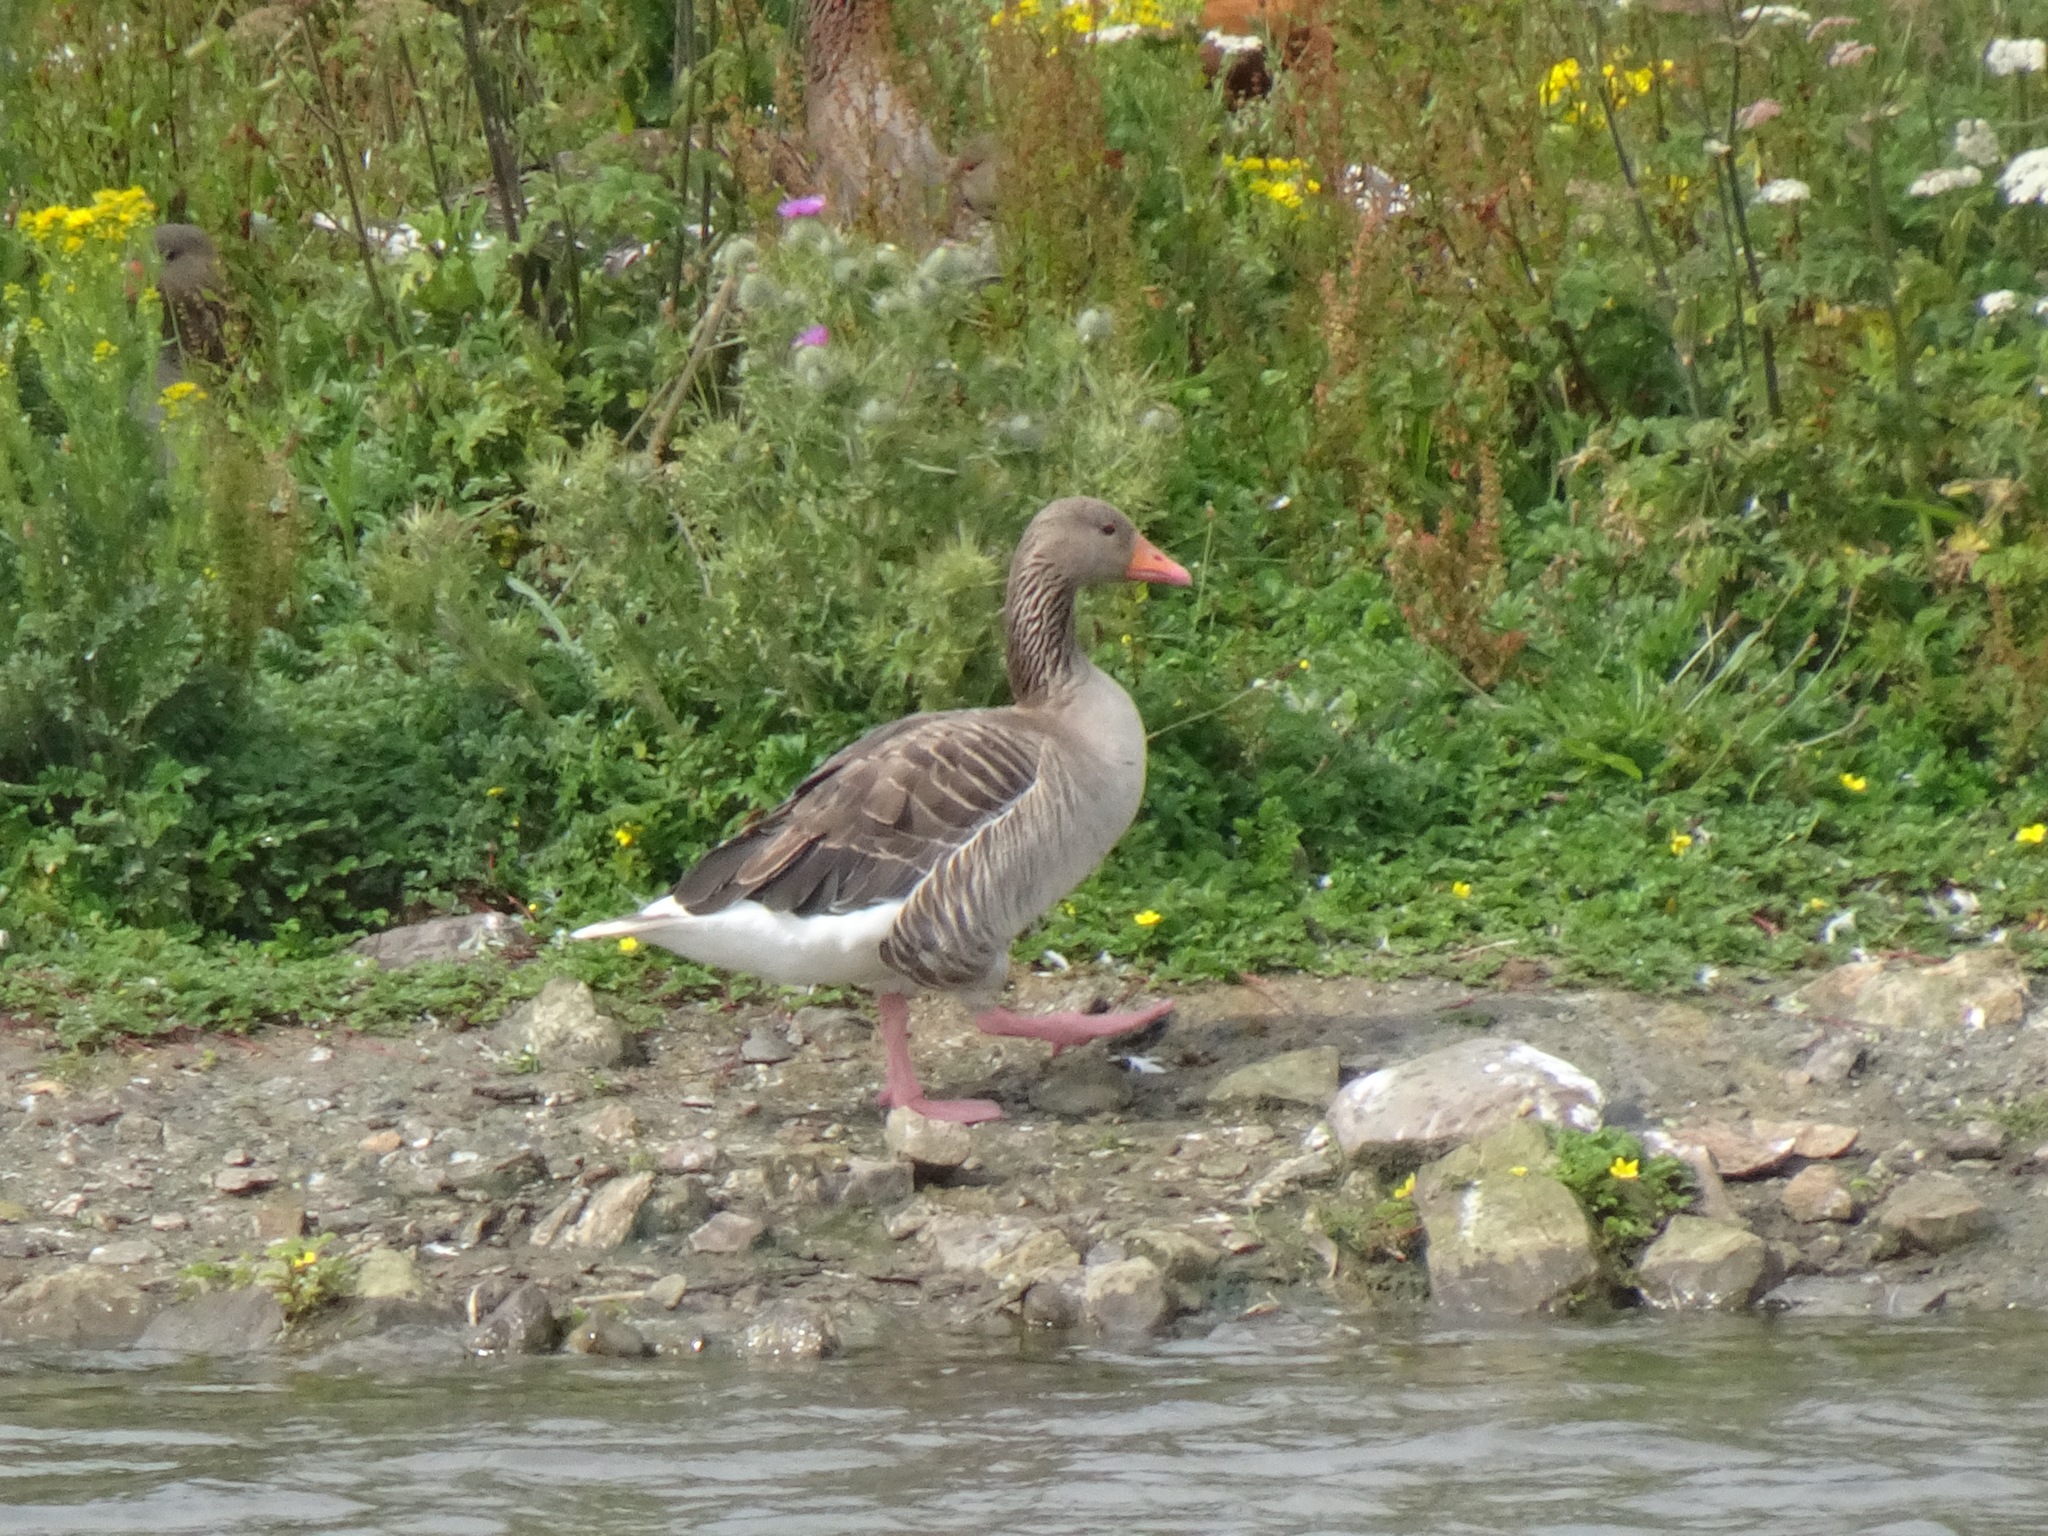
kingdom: Animalia
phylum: Chordata
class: Aves
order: Anseriformes
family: Anatidae
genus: Anser
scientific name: Anser anser
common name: Greylag goose
